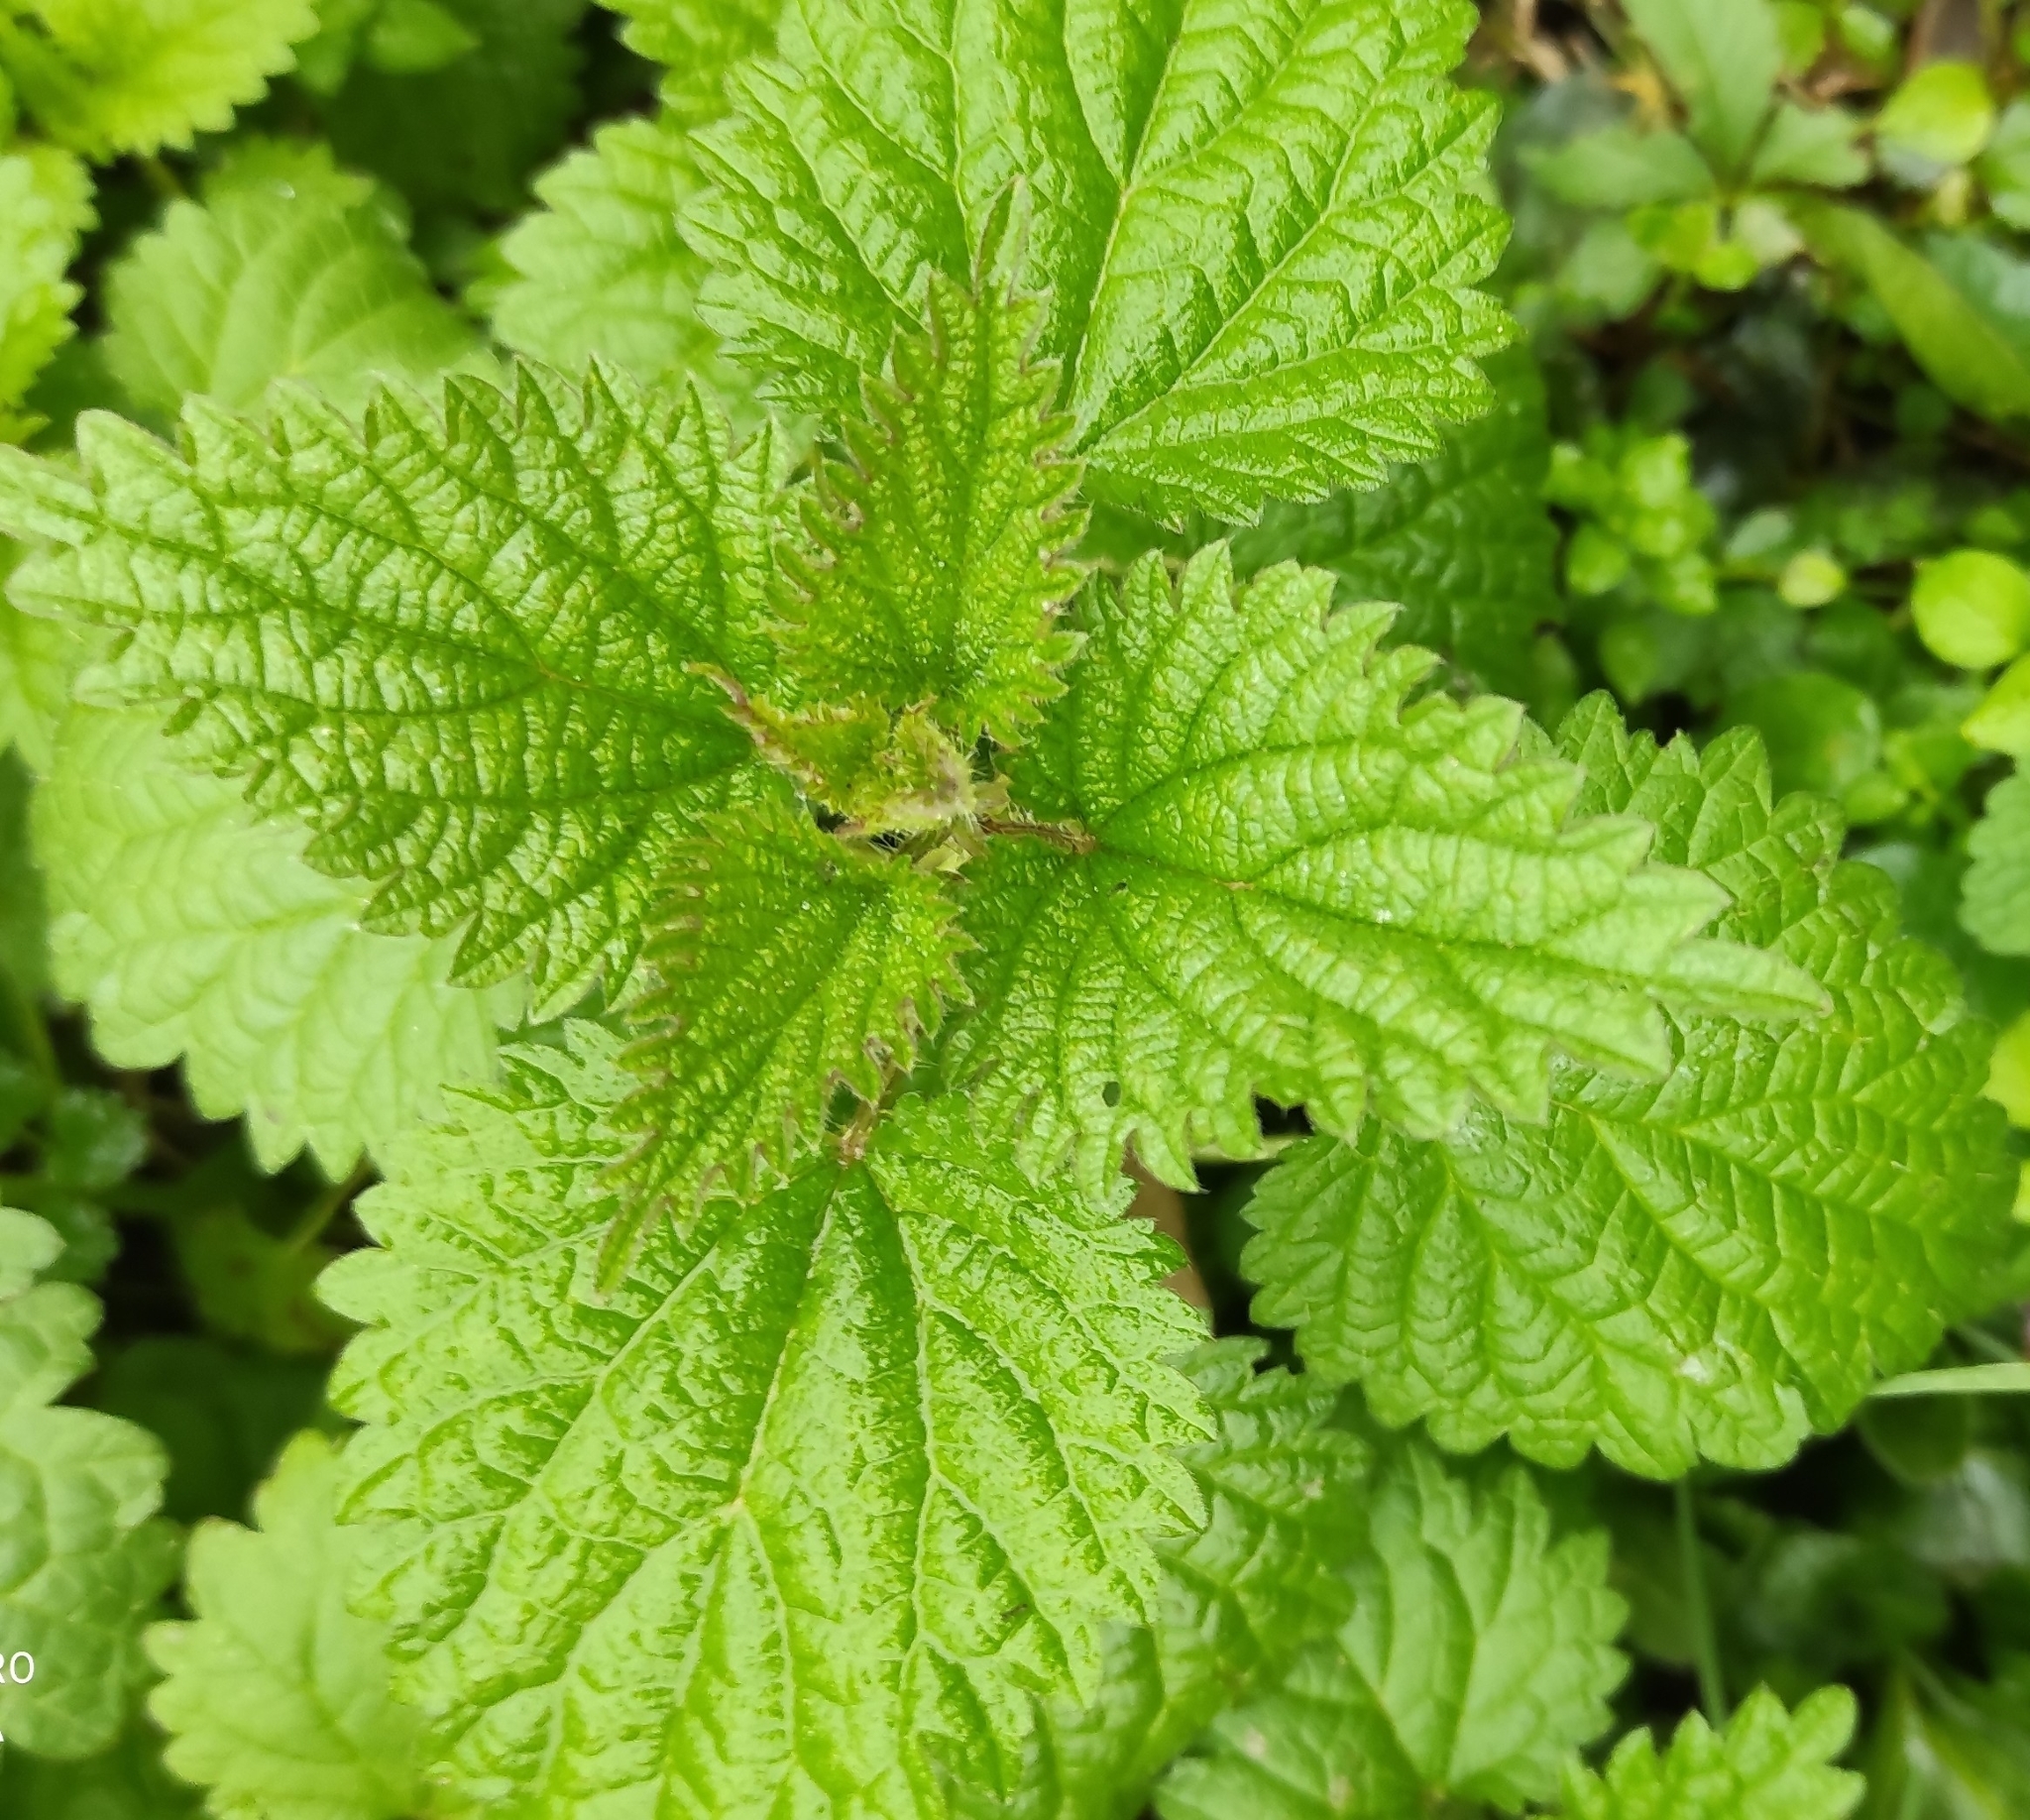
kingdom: Plantae
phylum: Tracheophyta
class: Magnoliopsida
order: Rosales
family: Urticaceae
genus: Urtica
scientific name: Urtica dioica
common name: Common nettle
